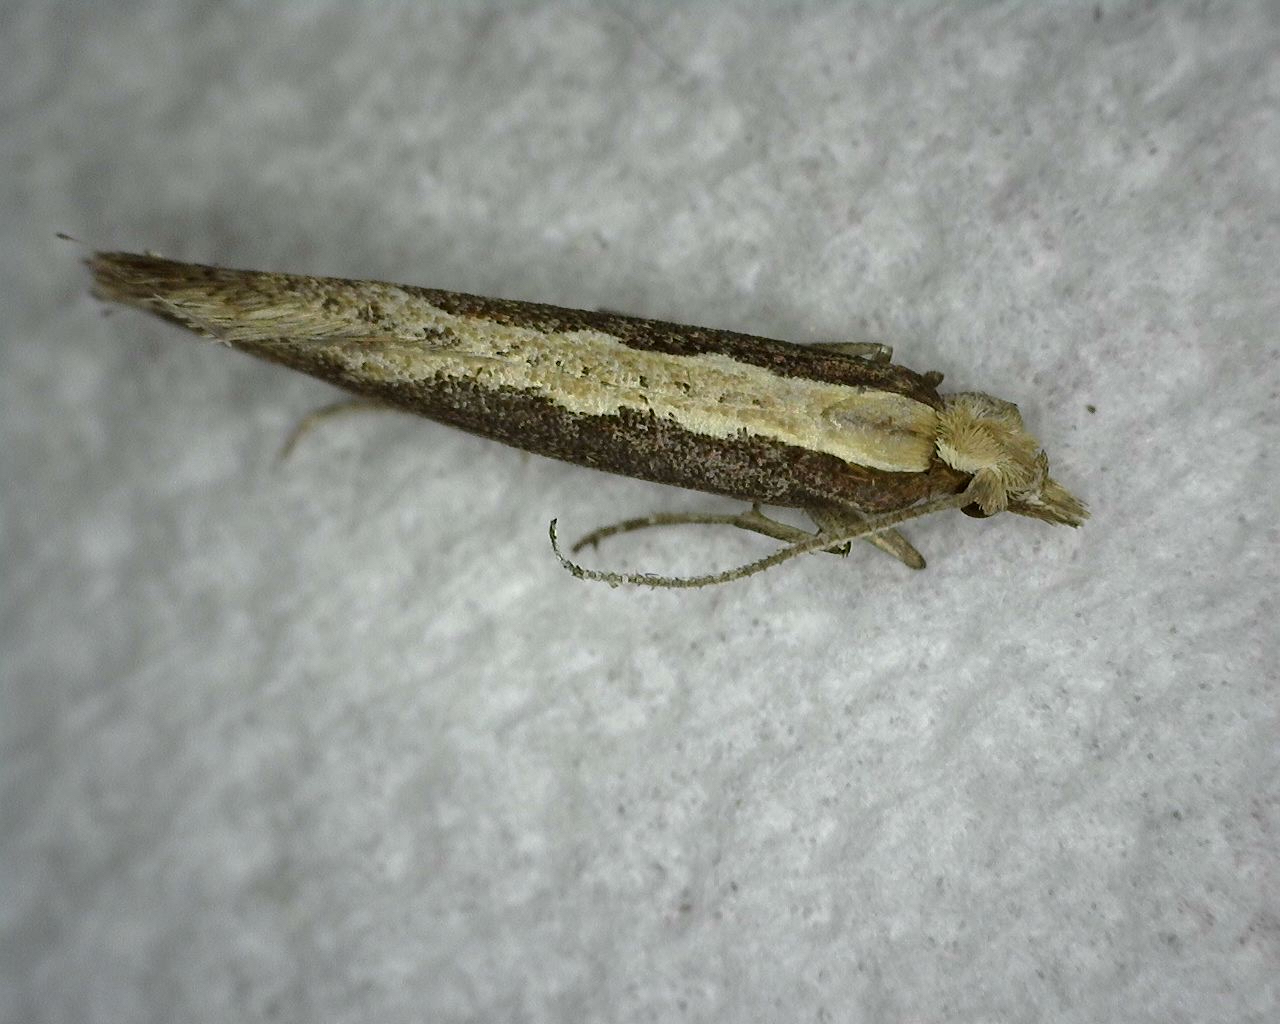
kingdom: Animalia
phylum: Arthropoda
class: Insecta
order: Lepidoptera
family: Plutellidae
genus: Plutella
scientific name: Plutella xylostella
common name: Diamond-back moth
